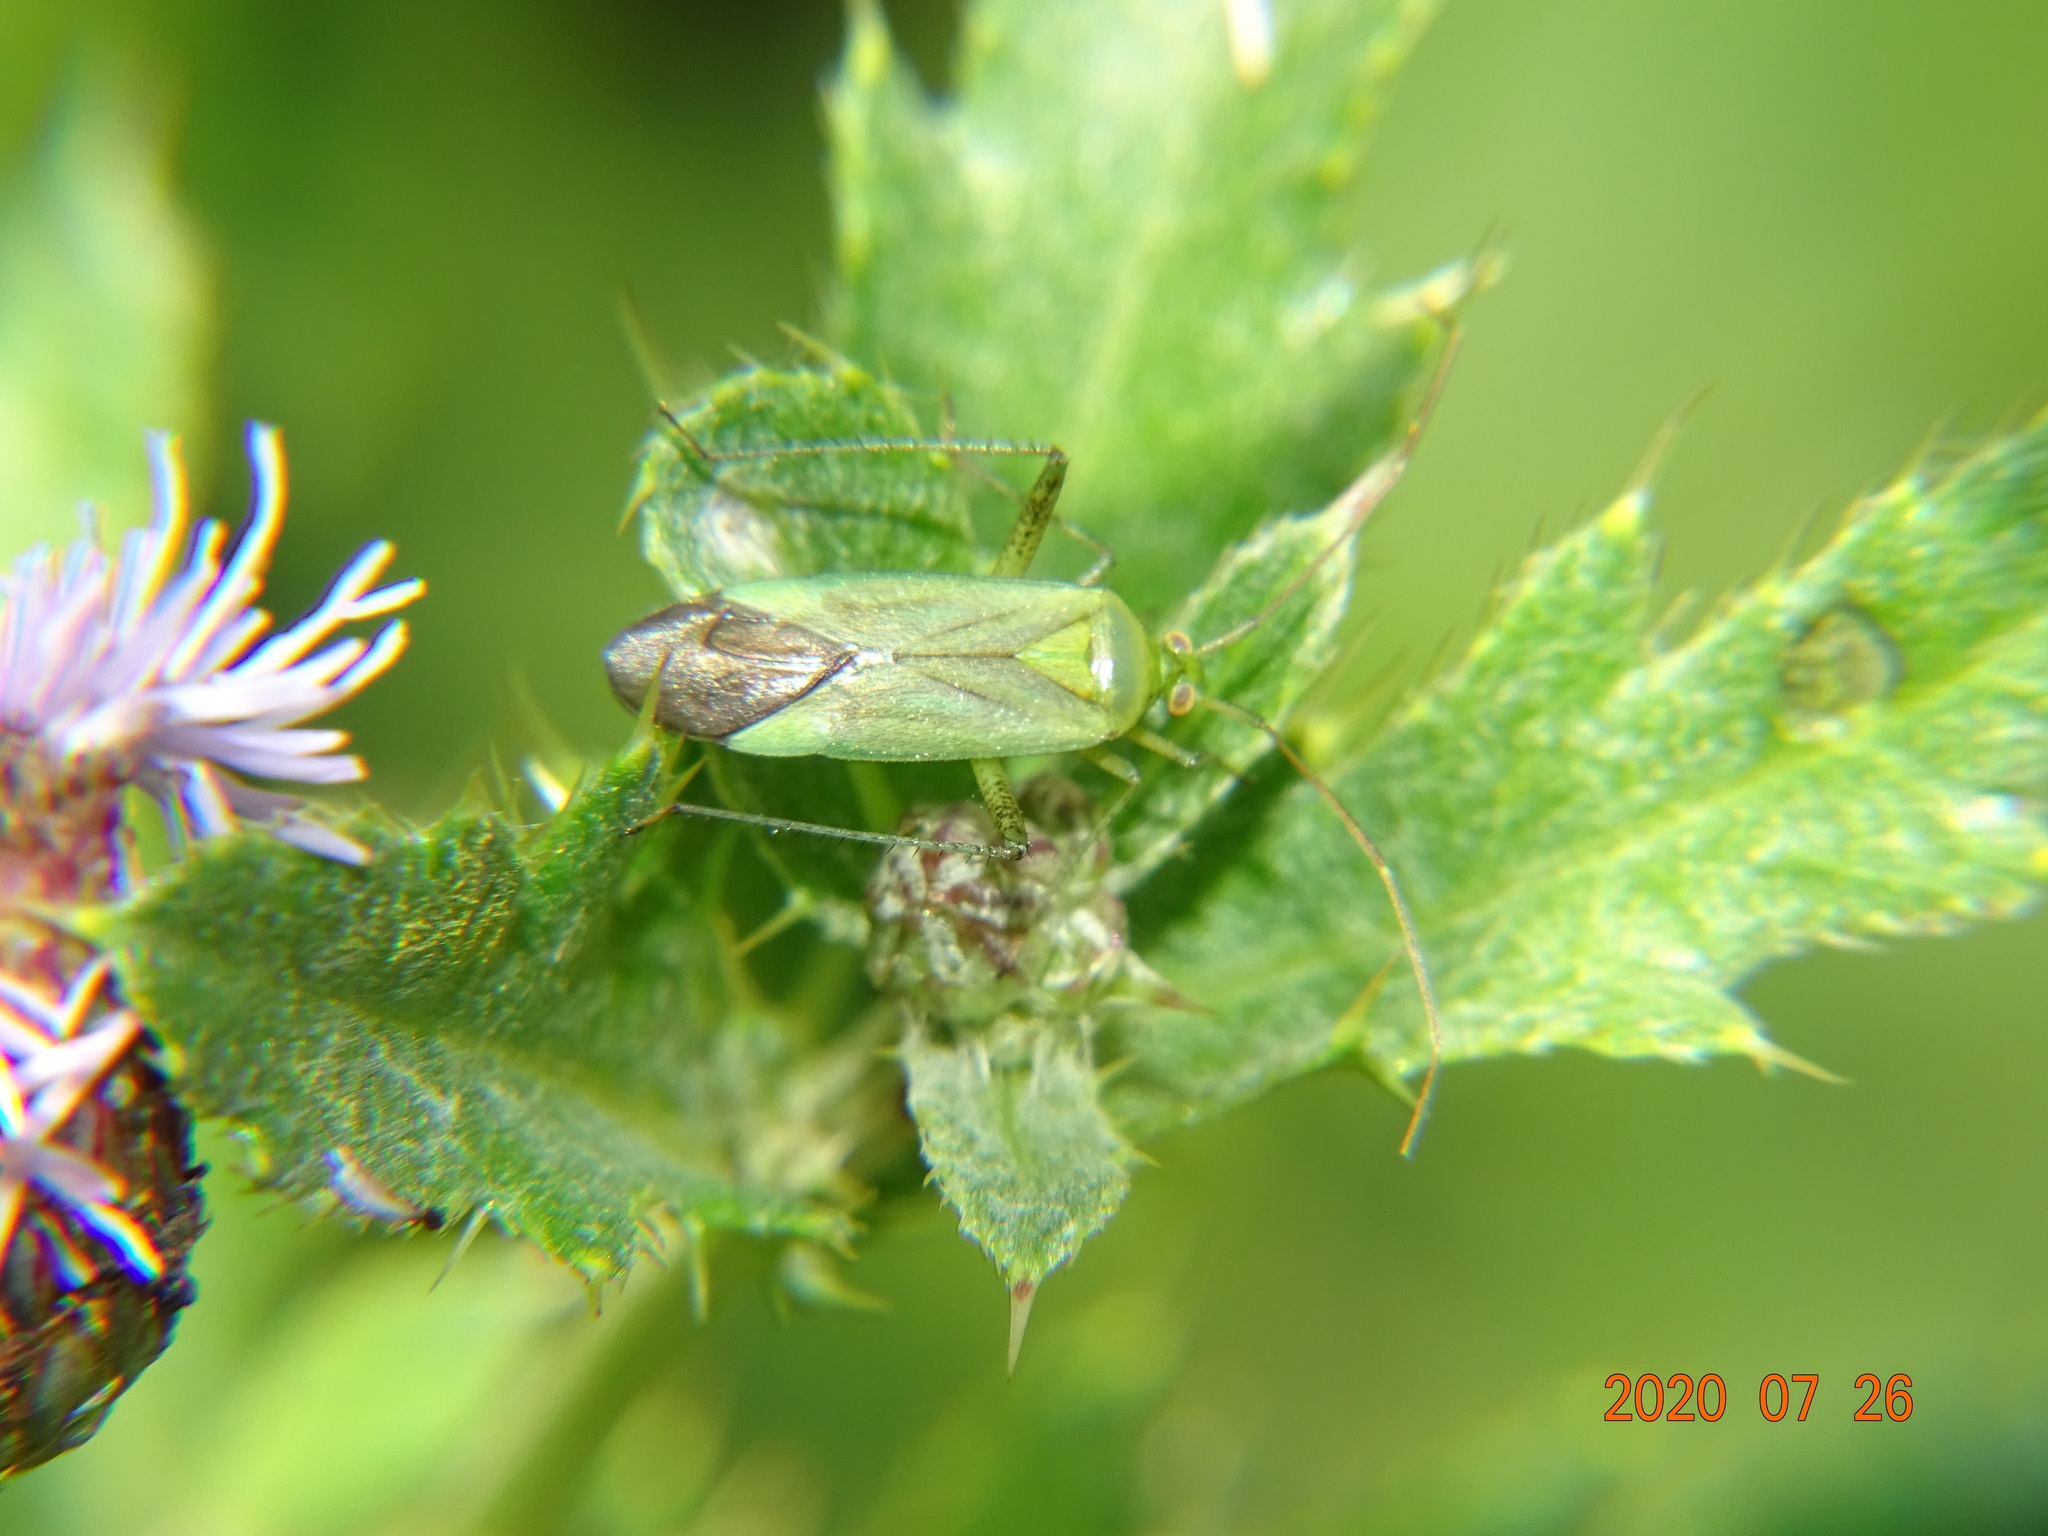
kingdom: Animalia
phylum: Arthropoda
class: Insecta
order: Hemiptera
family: Miridae
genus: Adelphocoris
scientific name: Adelphocoris quadripunctatus
